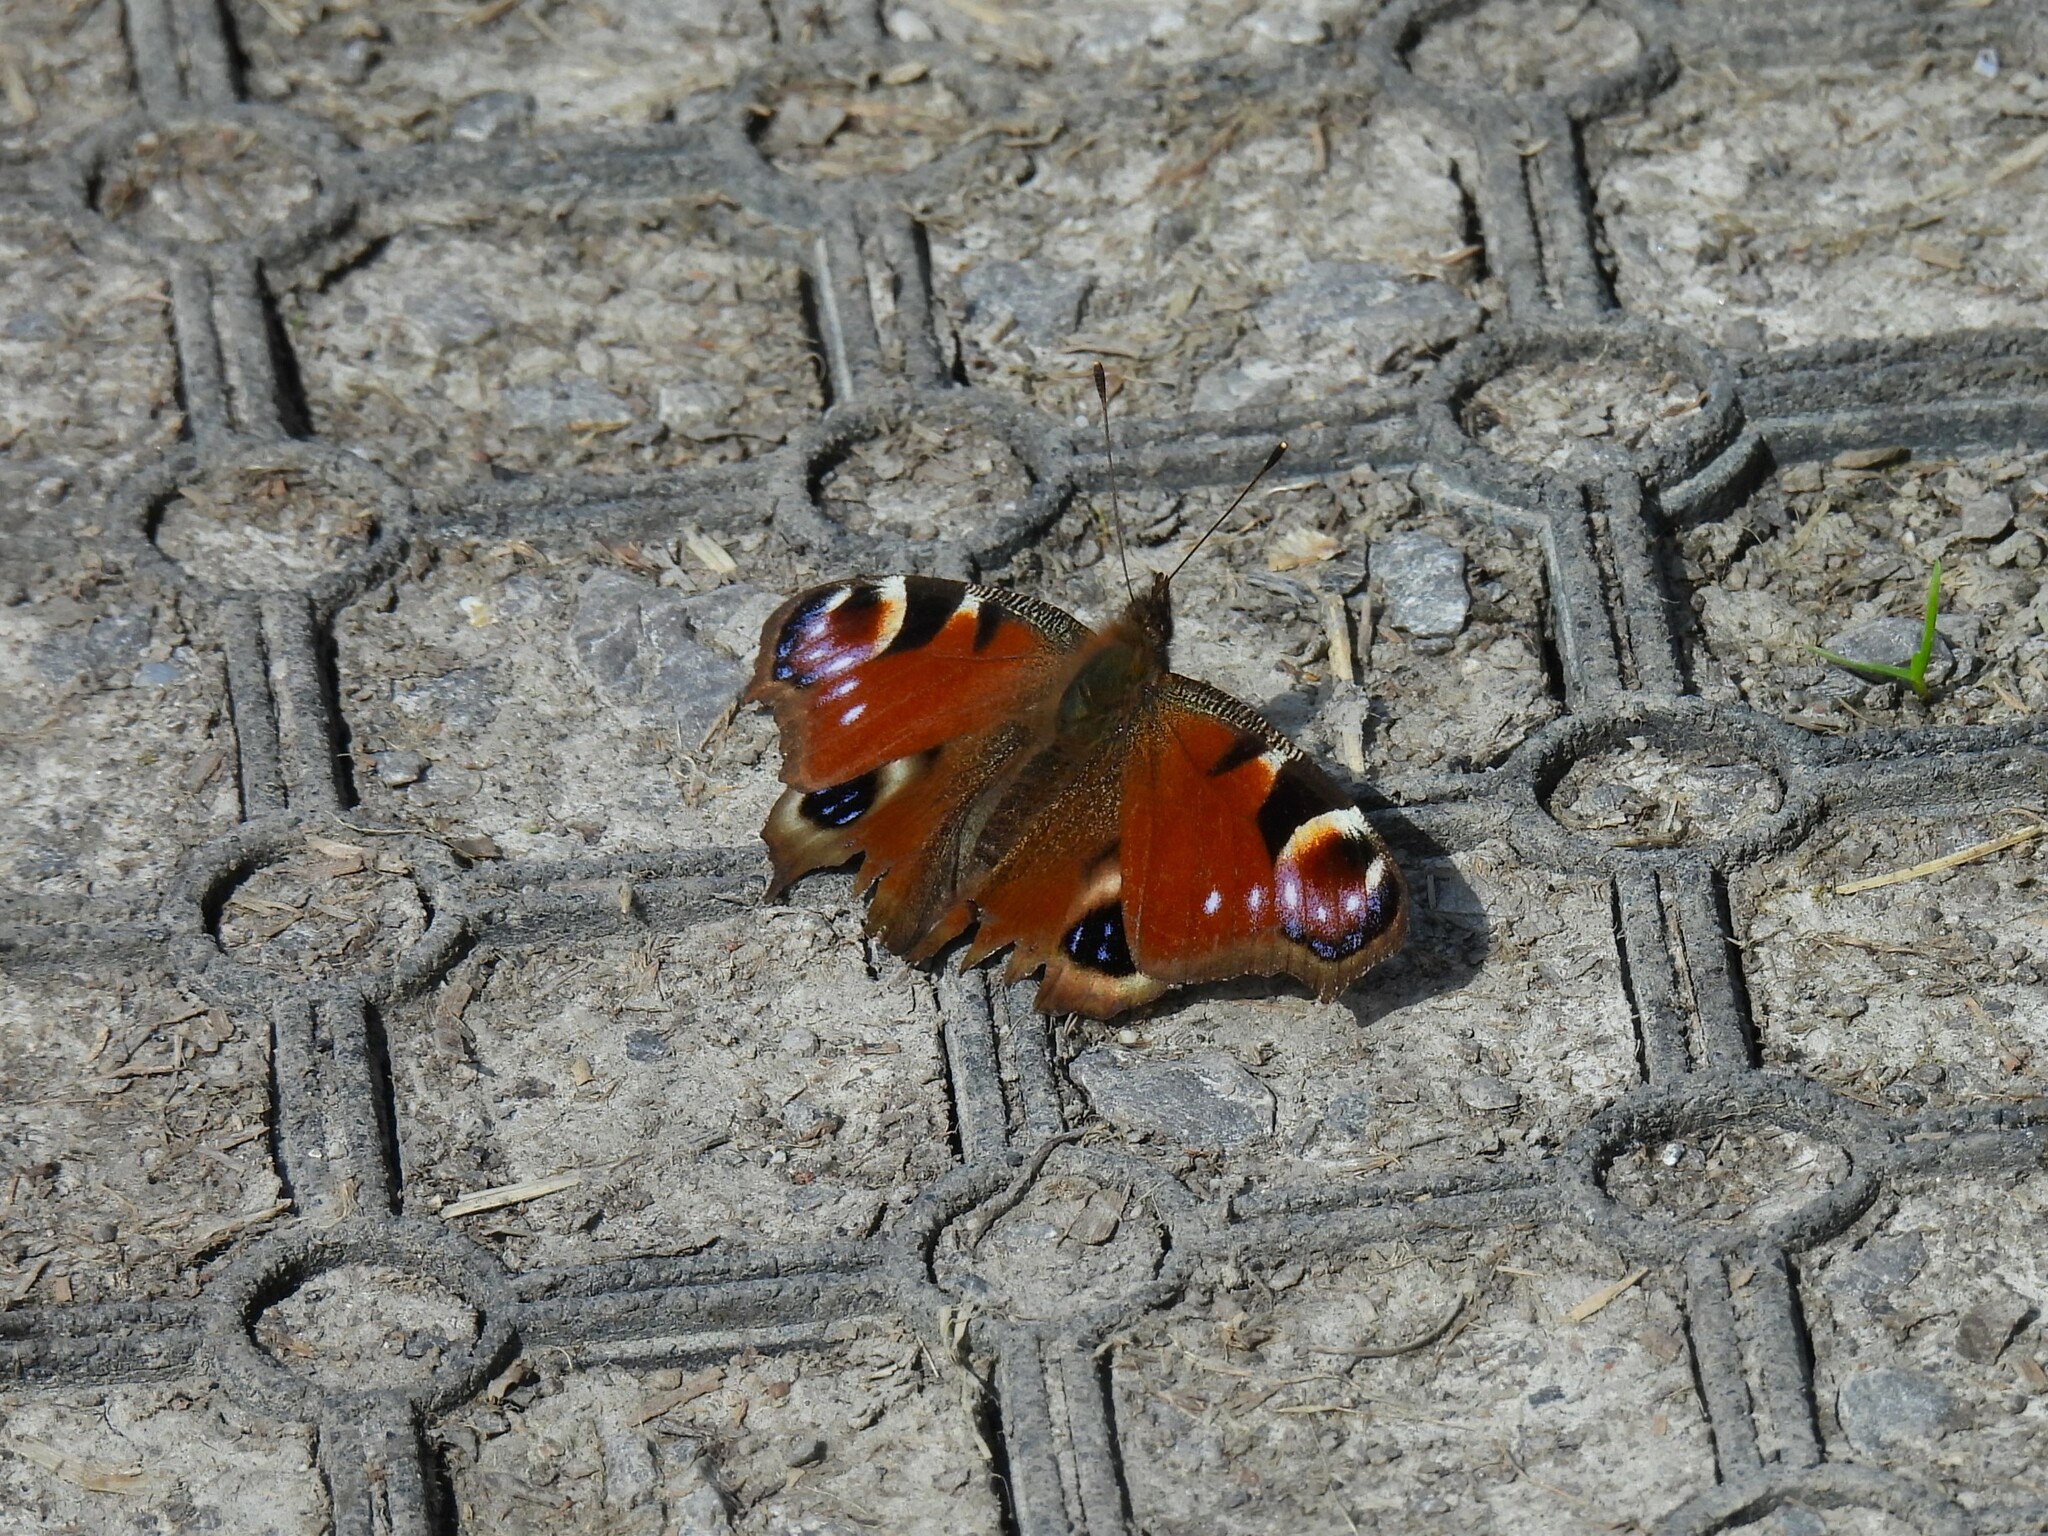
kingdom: Animalia
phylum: Arthropoda
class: Insecta
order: Lepidoptera
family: Nymphalidae
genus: Aglais
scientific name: Aglais io
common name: Peacock
